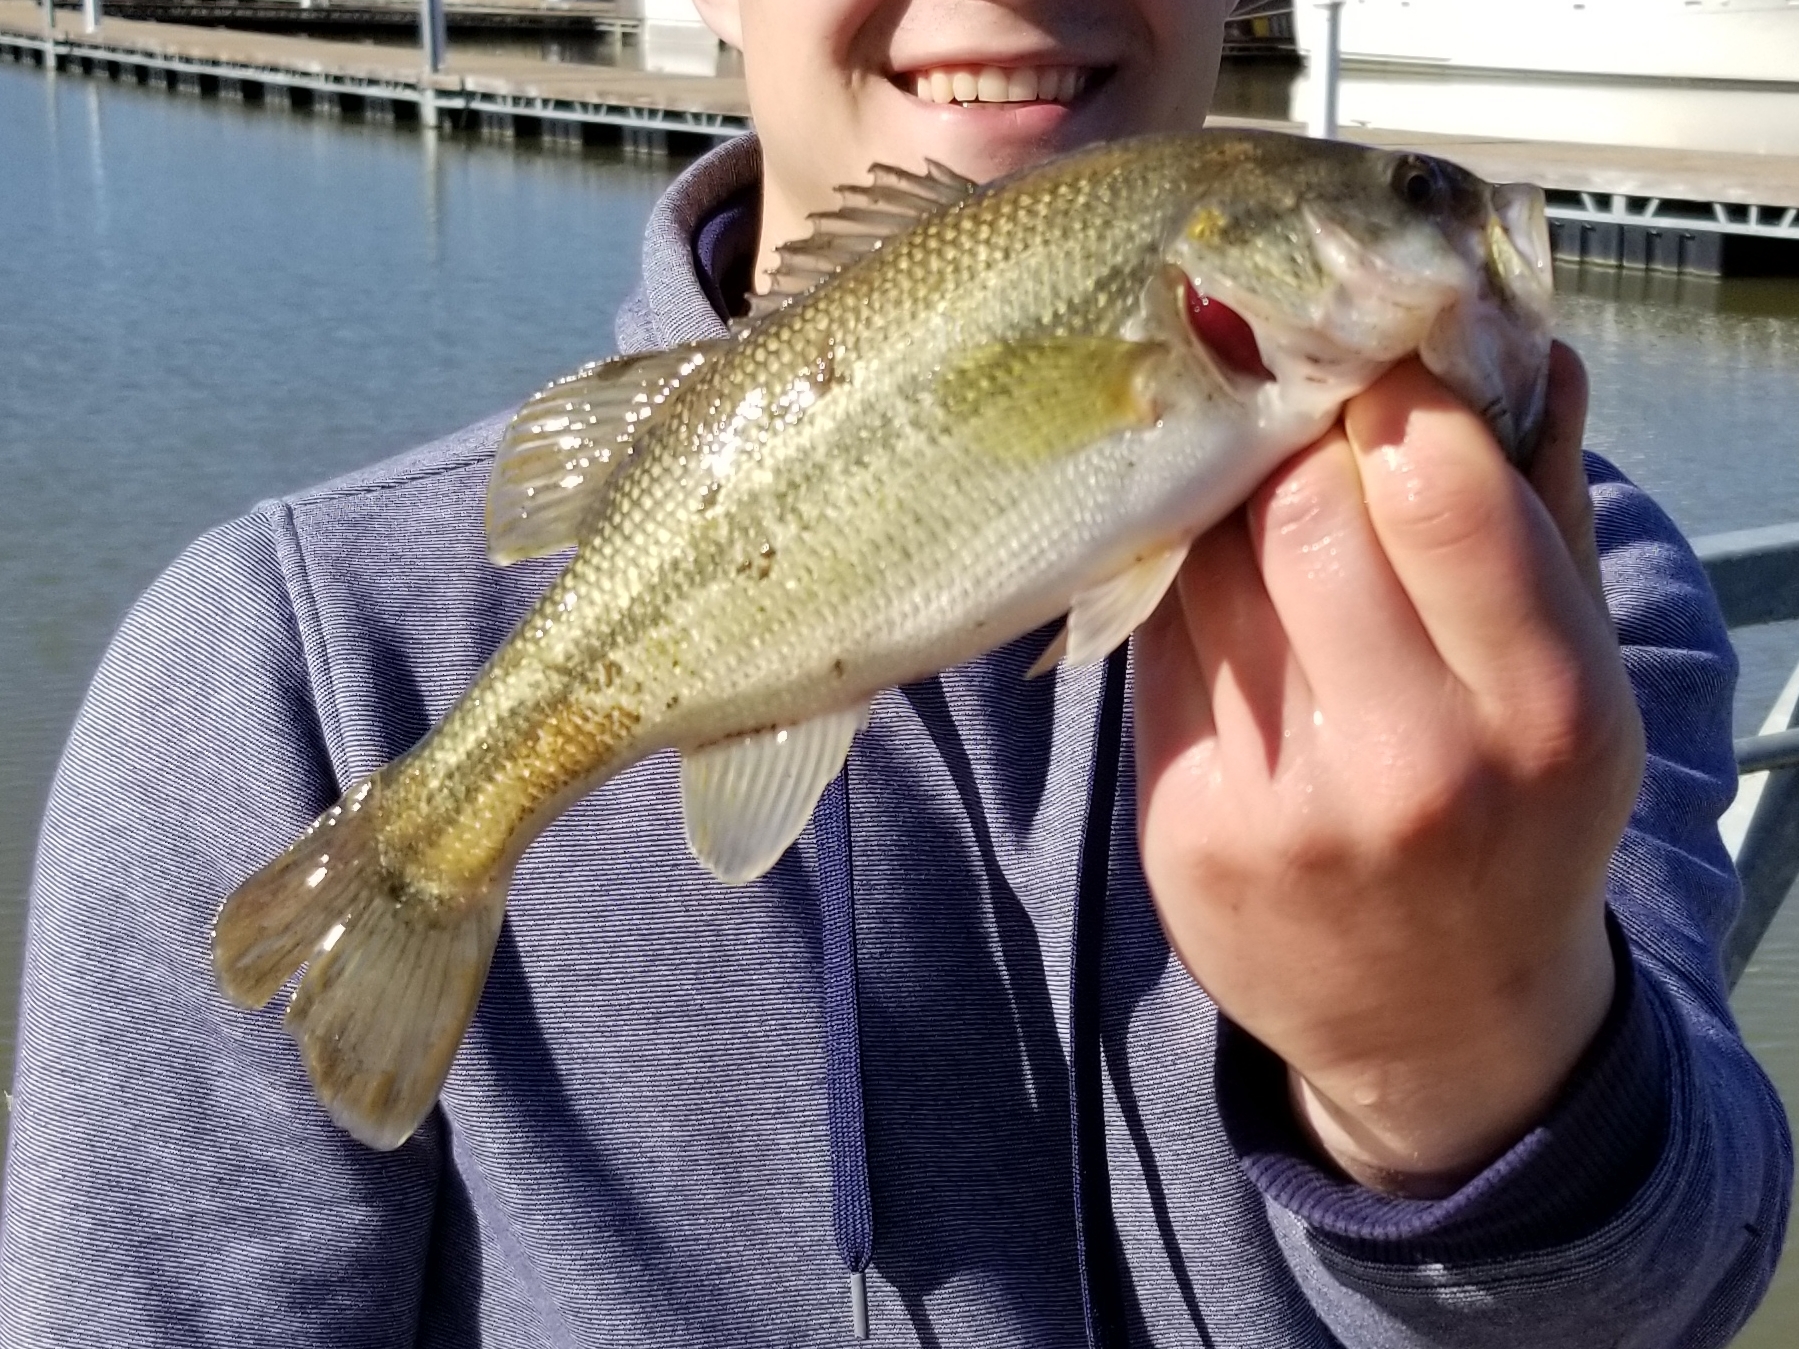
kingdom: Animalia
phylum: Chordata
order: Perciformes
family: Centrarchidae
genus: Micropterus
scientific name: Micropterus
